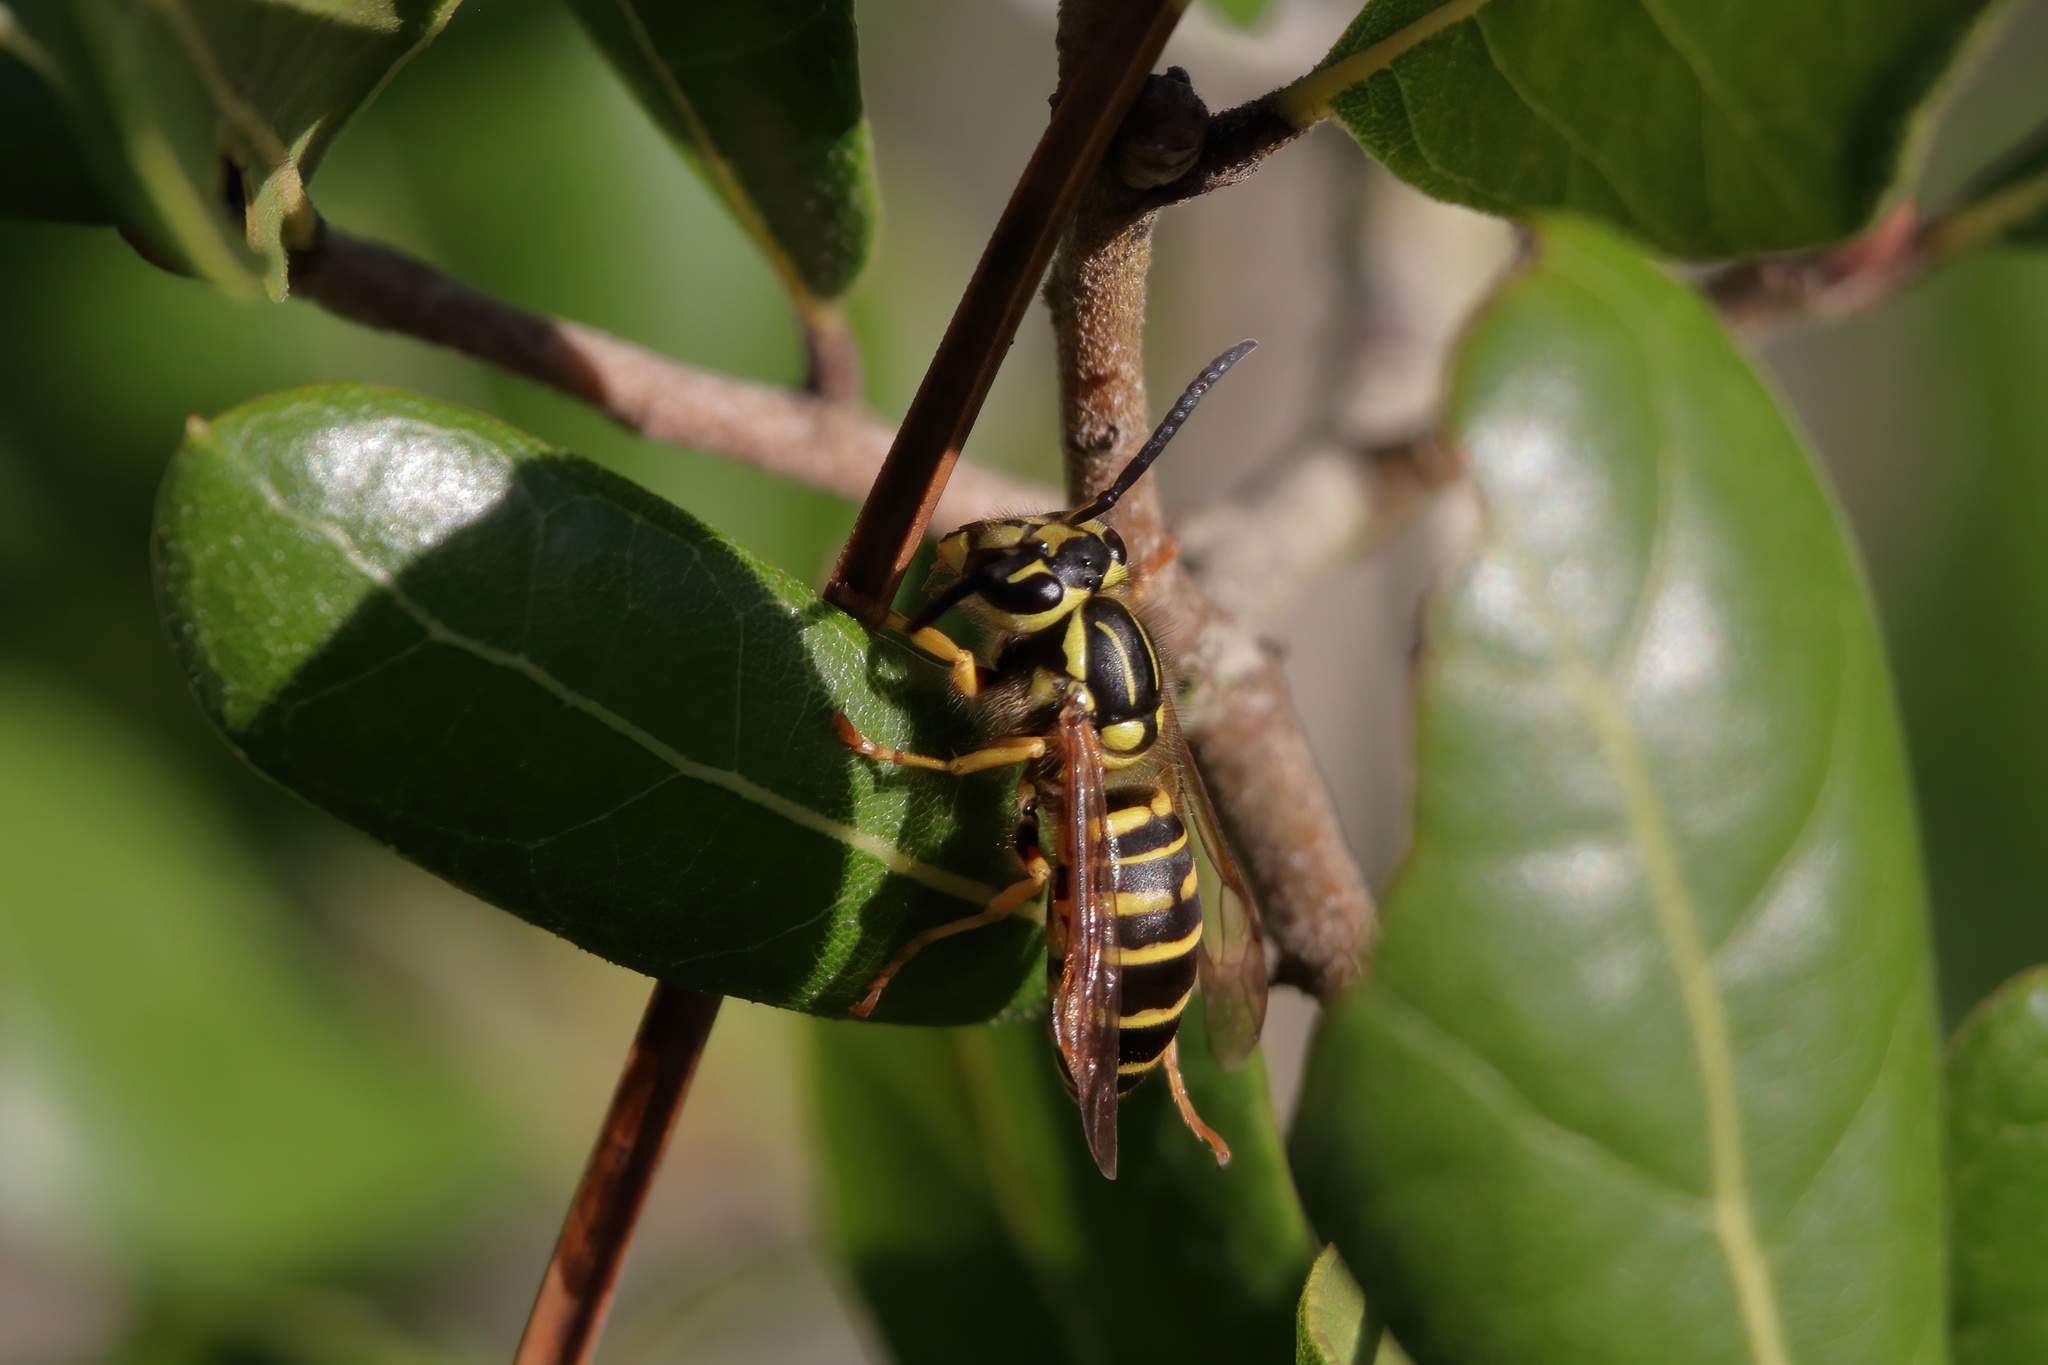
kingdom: Animalia
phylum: Arthropoda
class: Insecta
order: Hymenoptera
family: Vespidae
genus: Vespula
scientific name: Vespula squamosa
